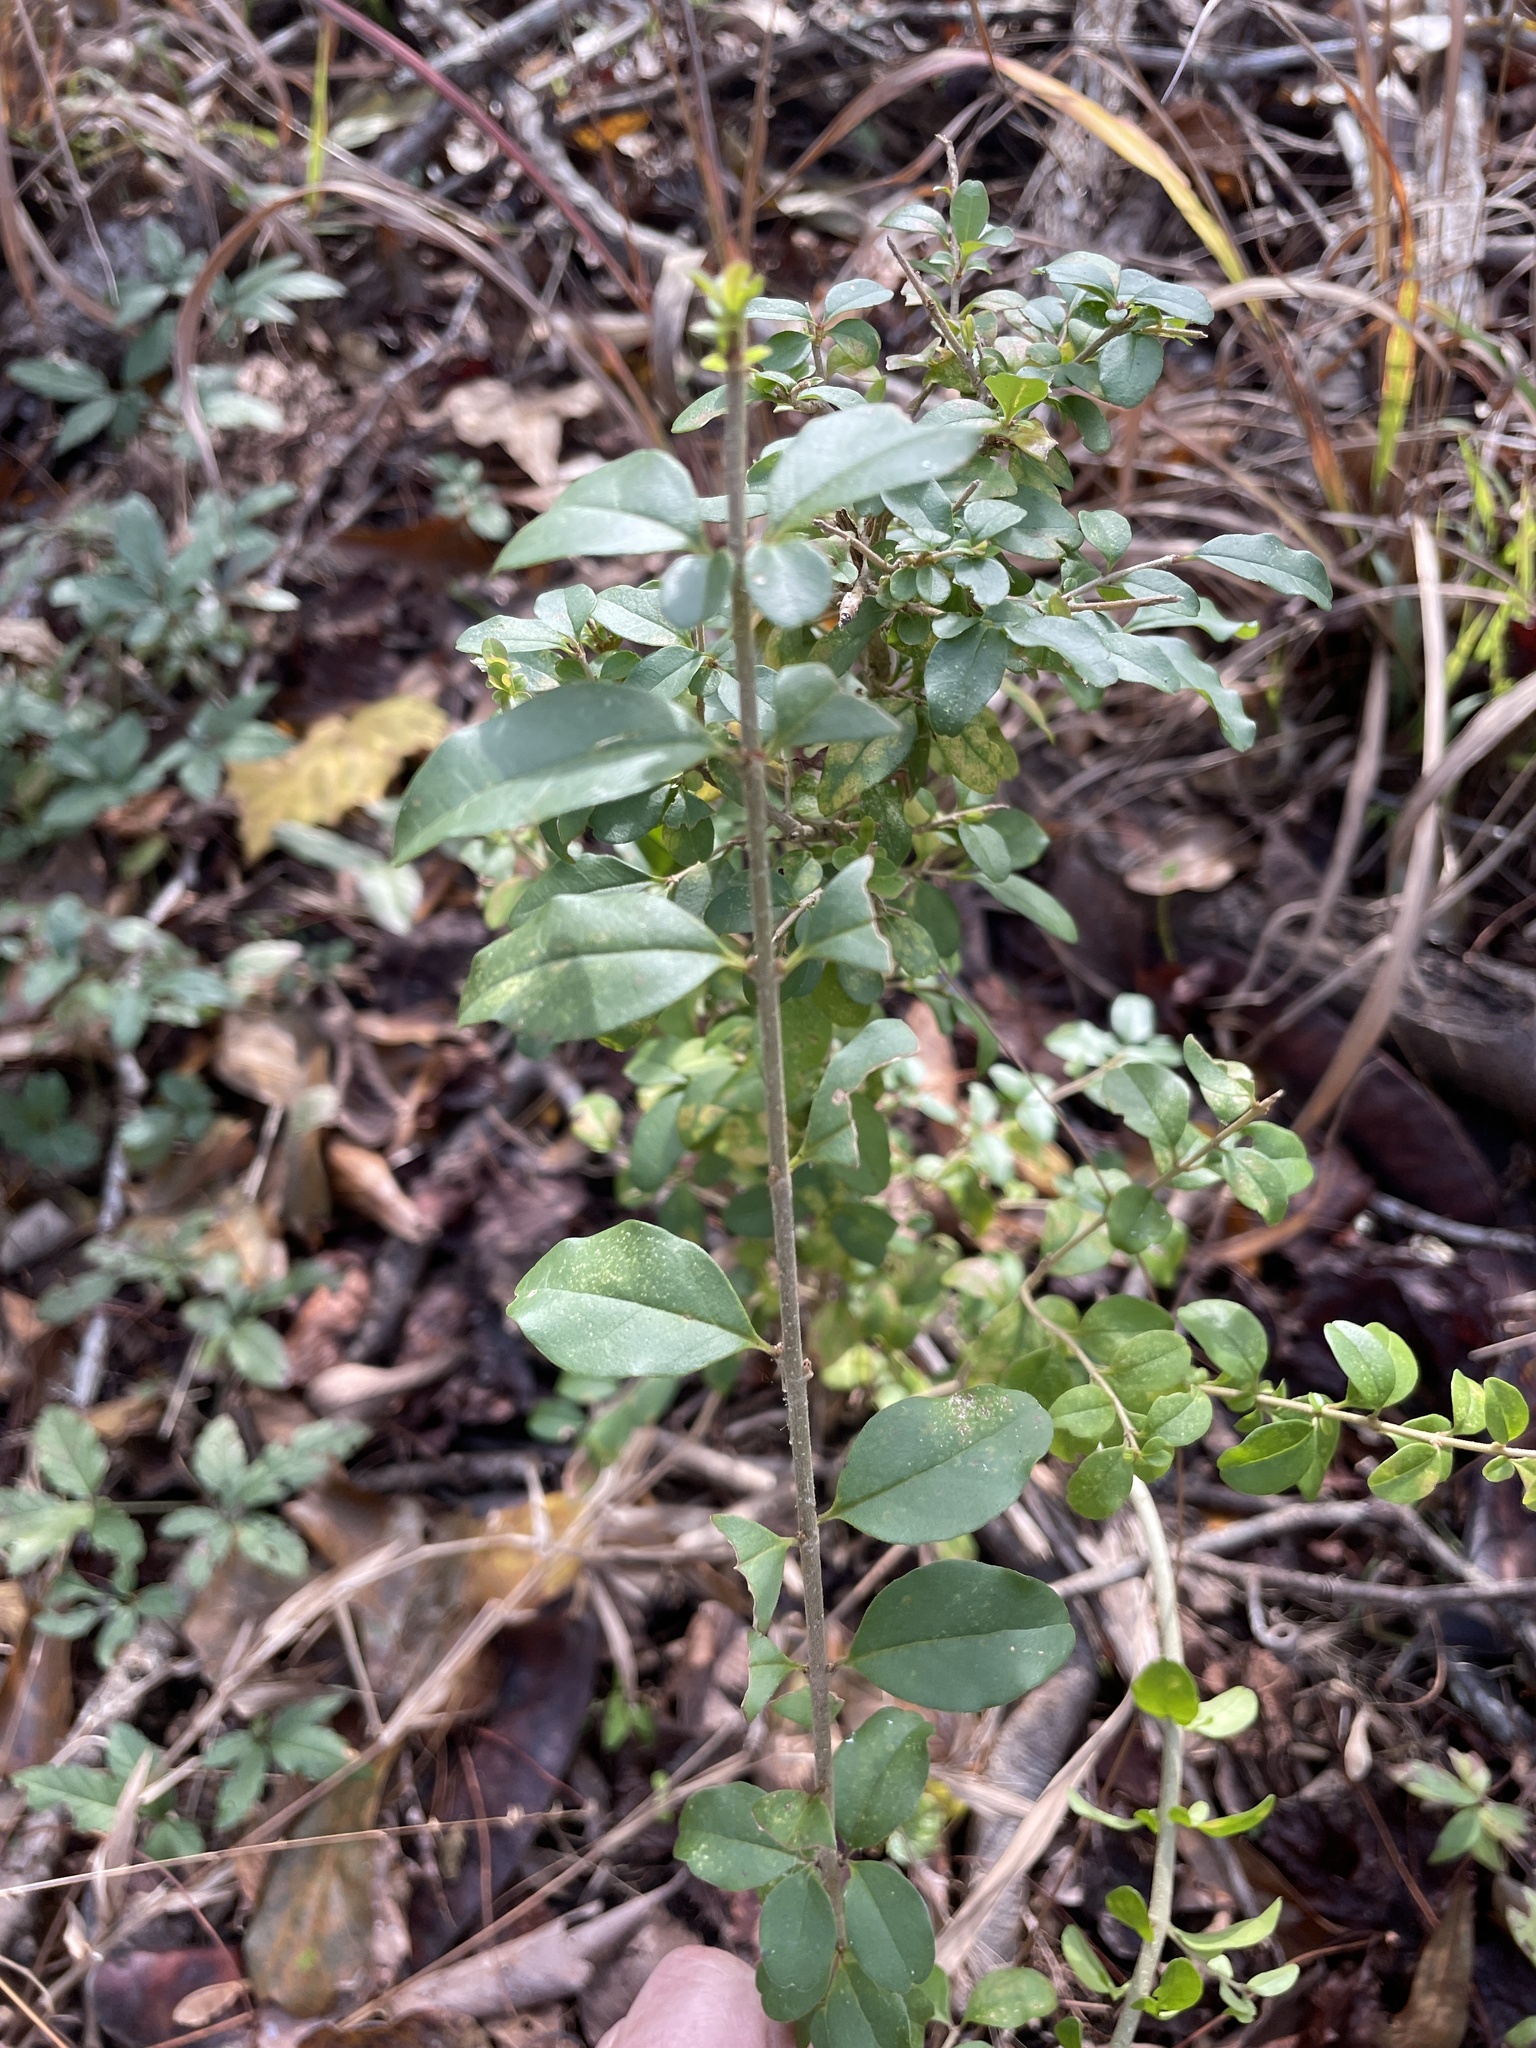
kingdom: Plantae
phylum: Tracheophyta
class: Magnoliopsida
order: Lamiales
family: Oleaceae
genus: Ligustrum
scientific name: Ligustrum sinense
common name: Chinese privet
